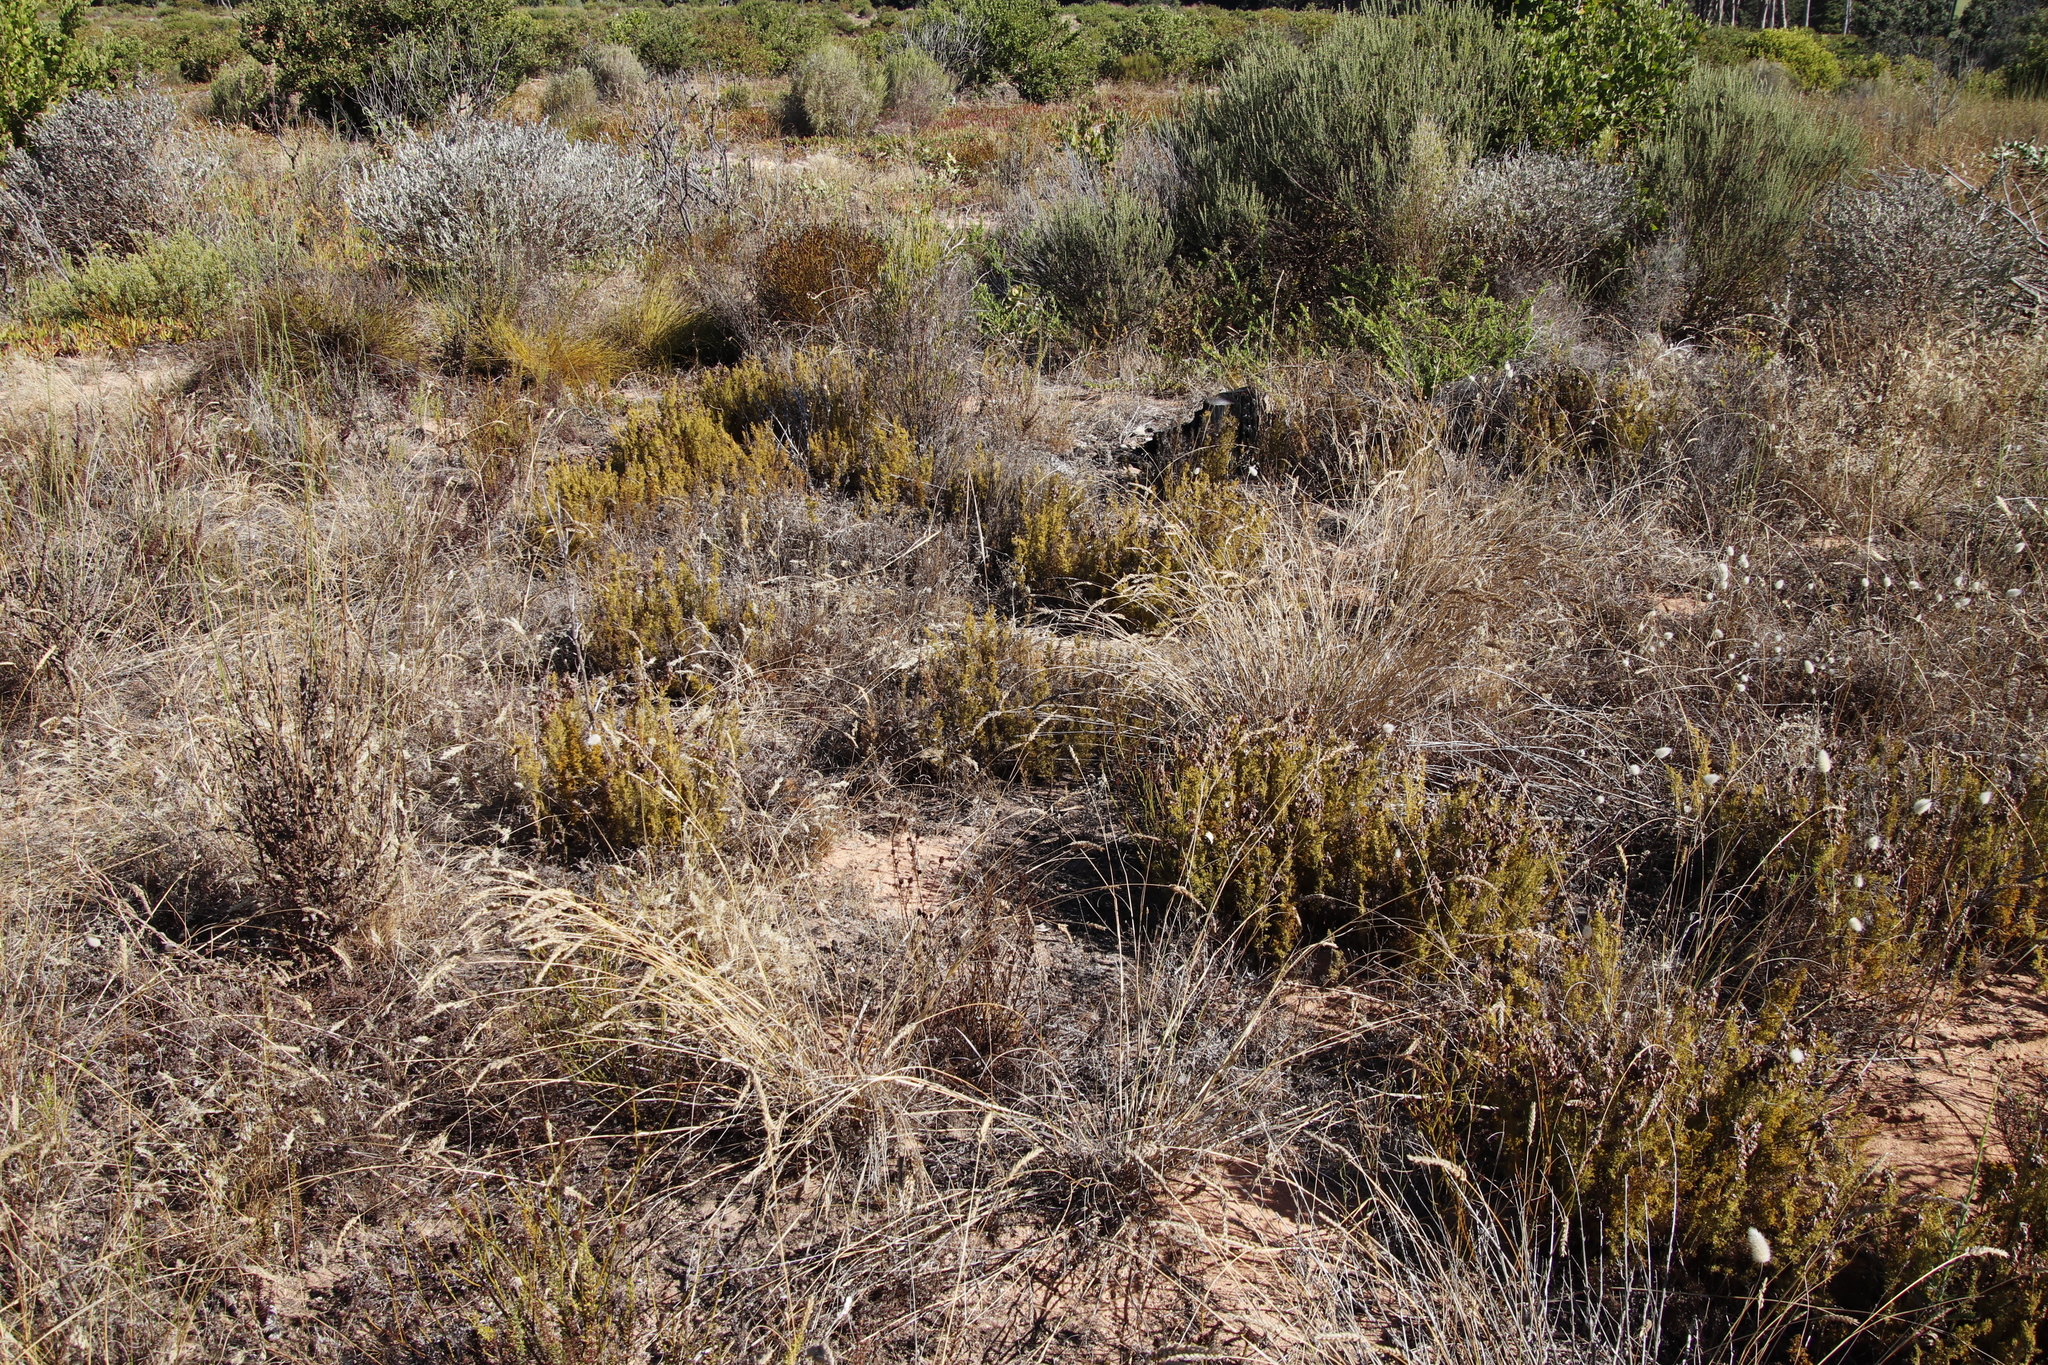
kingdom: Plantae
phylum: Tracheophyta
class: Liliopsida
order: Poales
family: Restionaceae
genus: Thamnochortus
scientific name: Thamnochortus fruticosus
